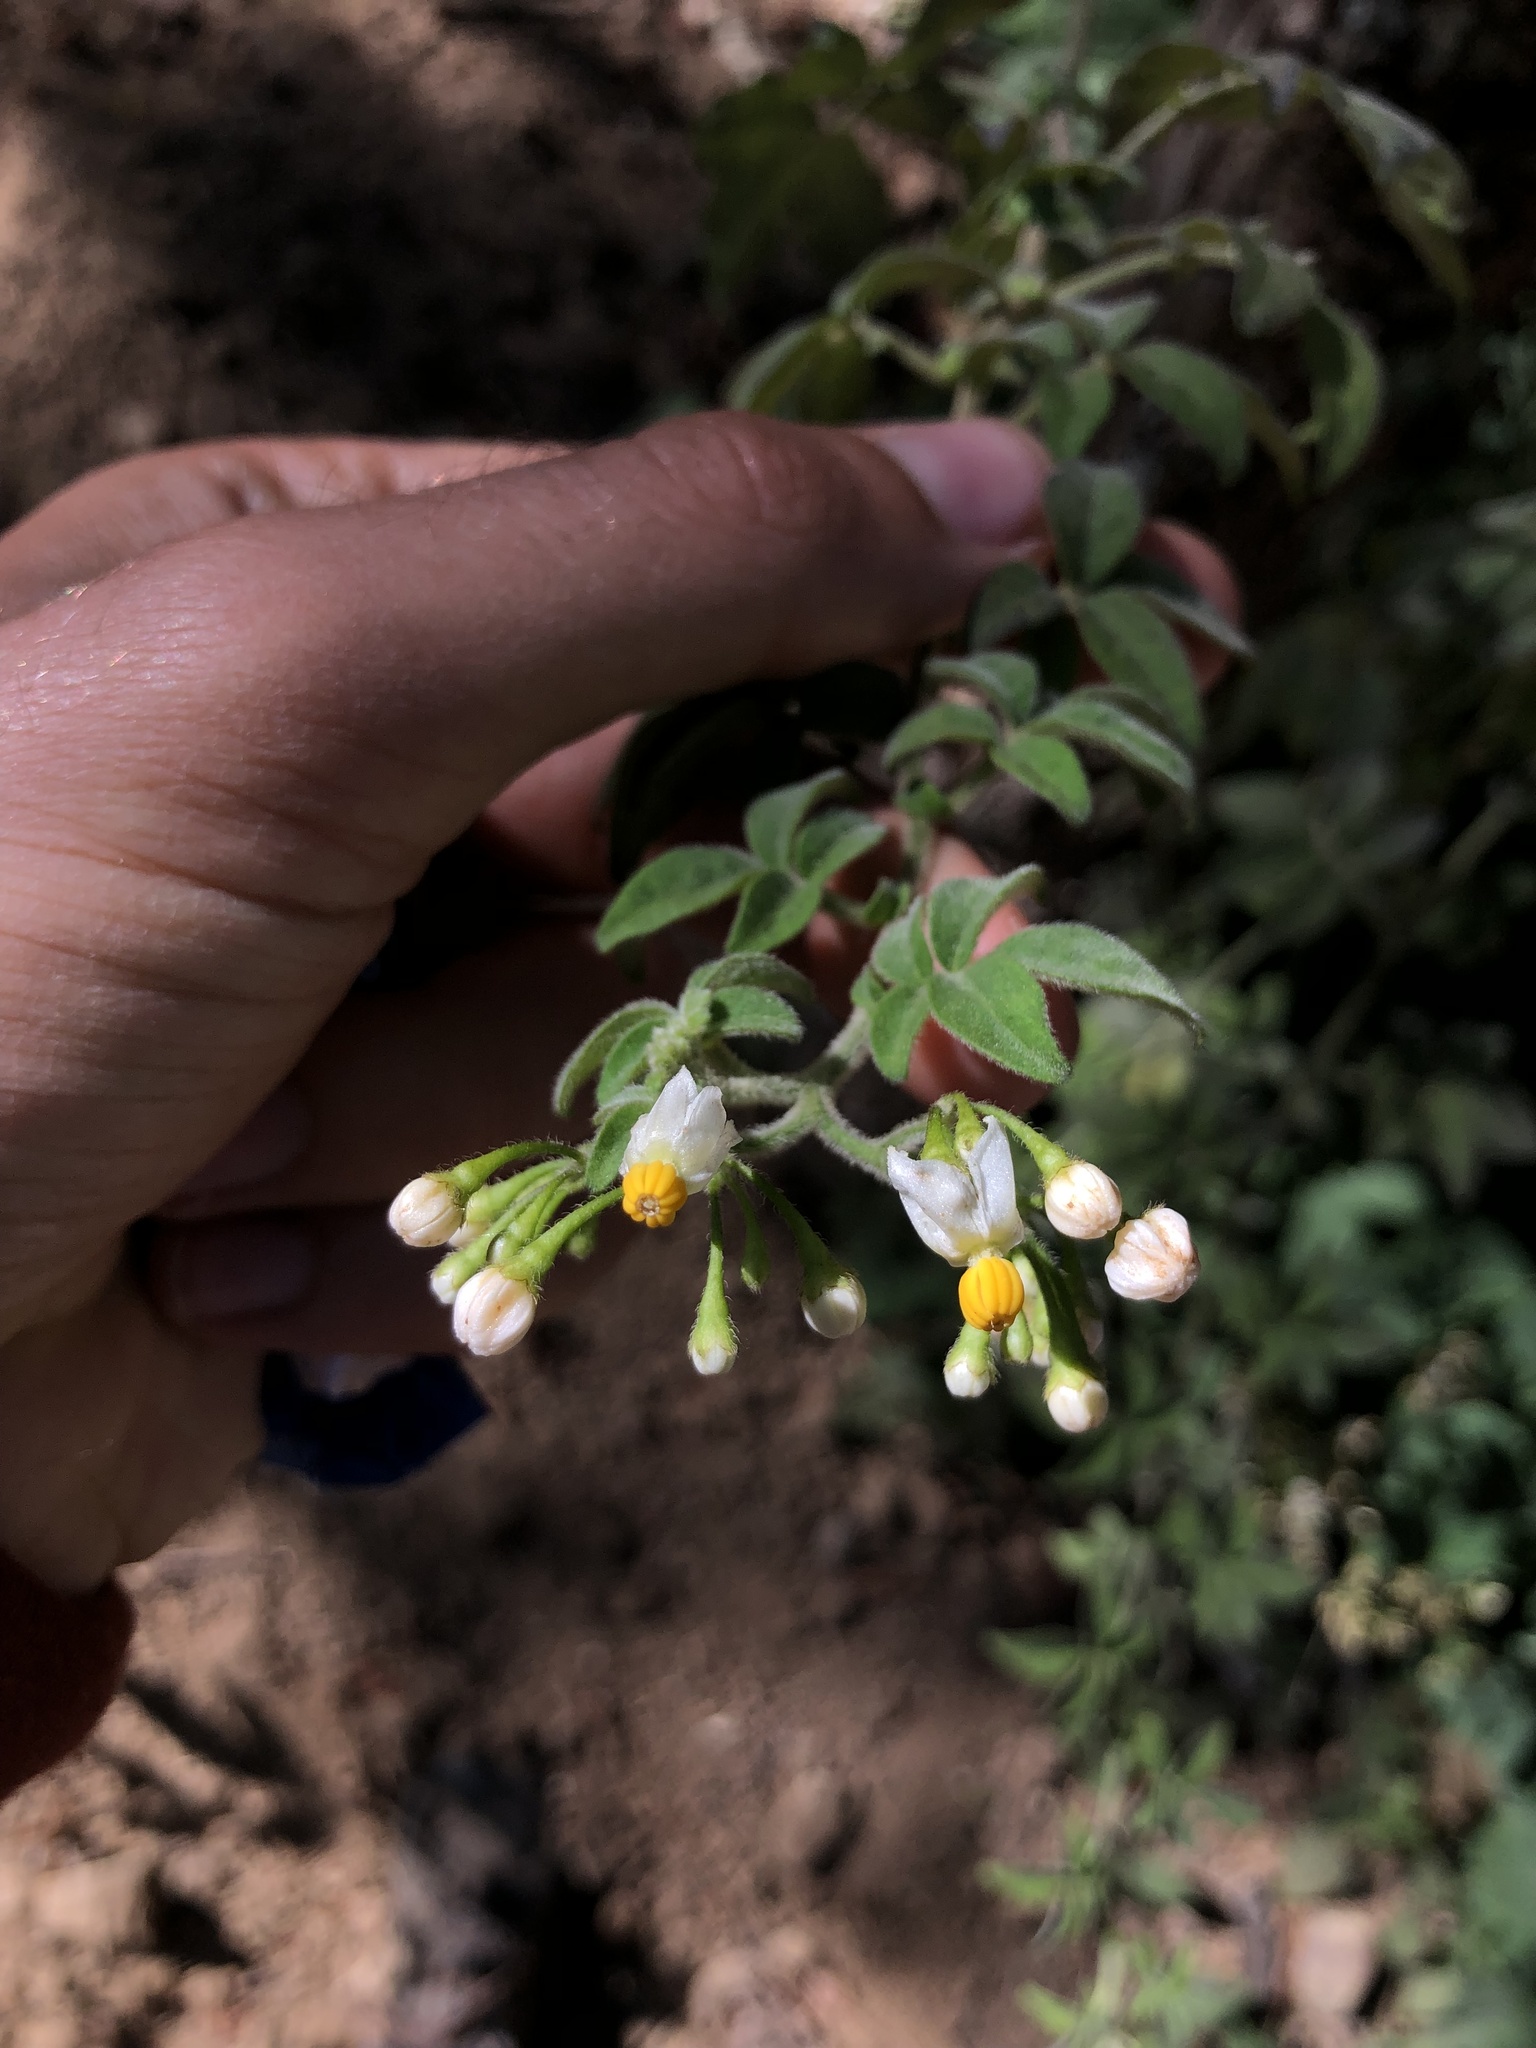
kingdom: Plantae
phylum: Tracheophyta
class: Magnoliopsida
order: Solanales
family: Solanaceae
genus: Solanum
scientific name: Solanum appendiculatum
